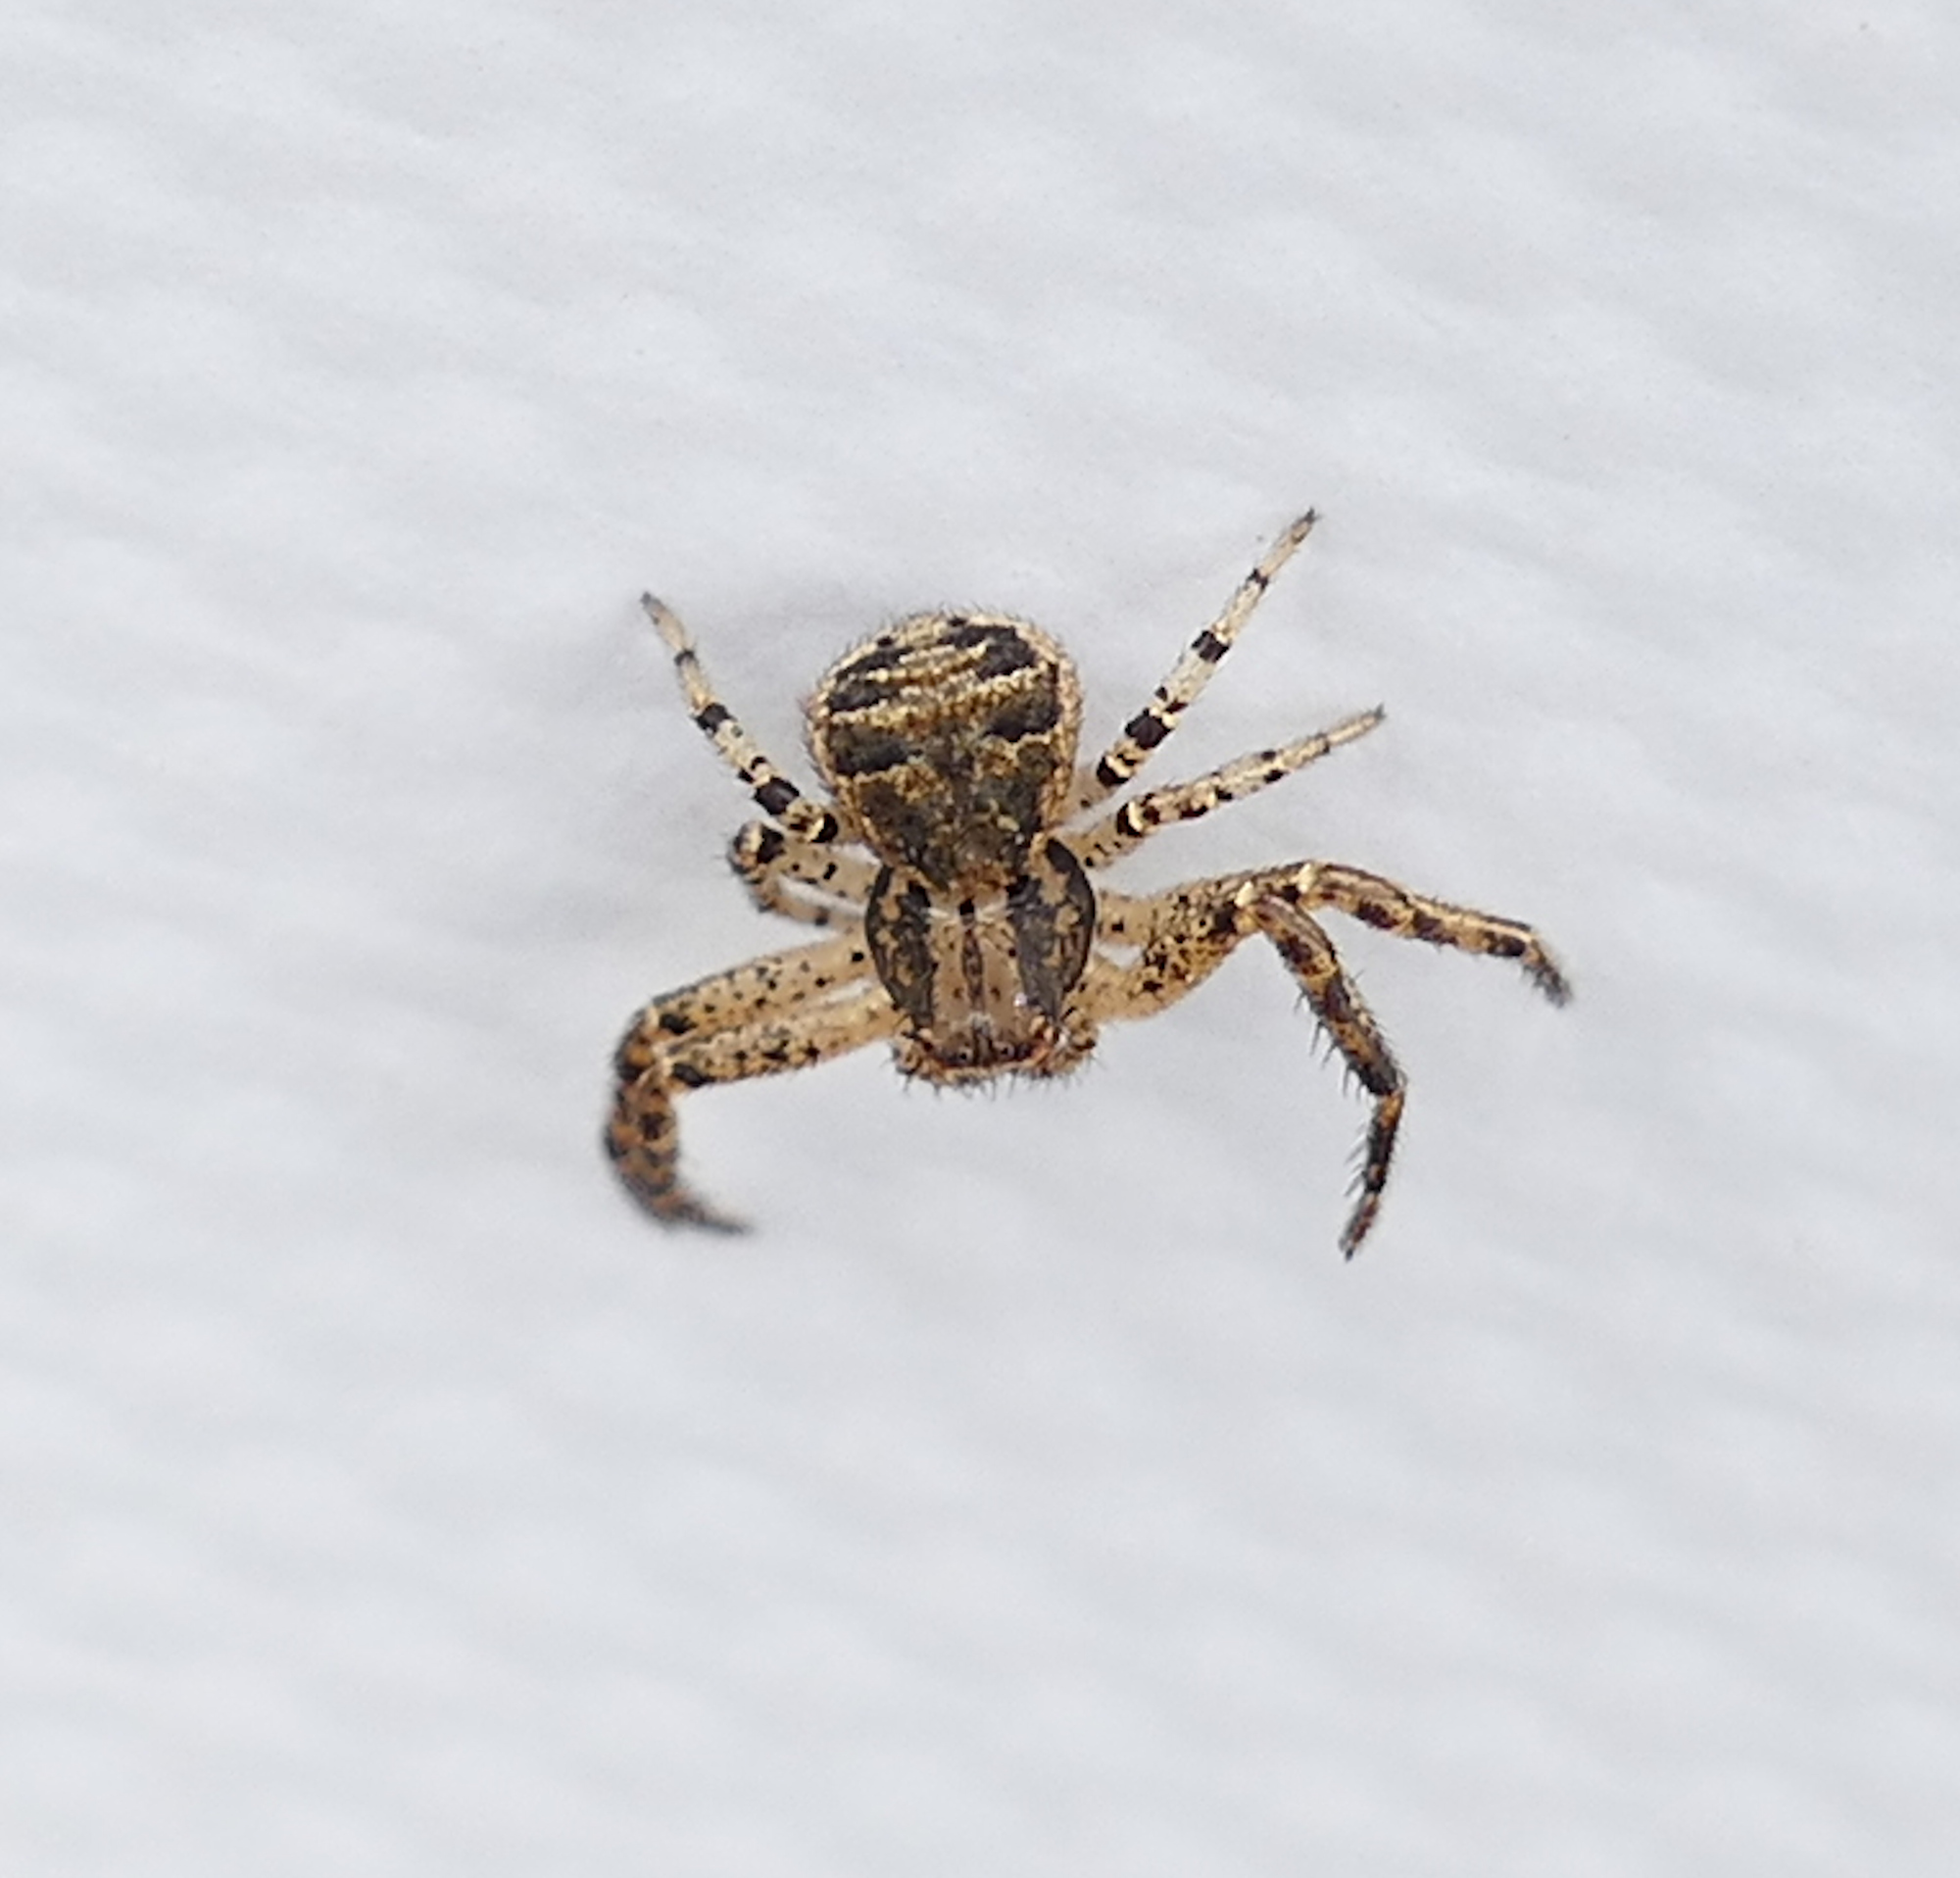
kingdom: Animalia
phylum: Arthropoda
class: Arachnida
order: Araneae
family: Thomisidae
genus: Xysticus
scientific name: Xysticus ferox
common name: Tan crab spider
